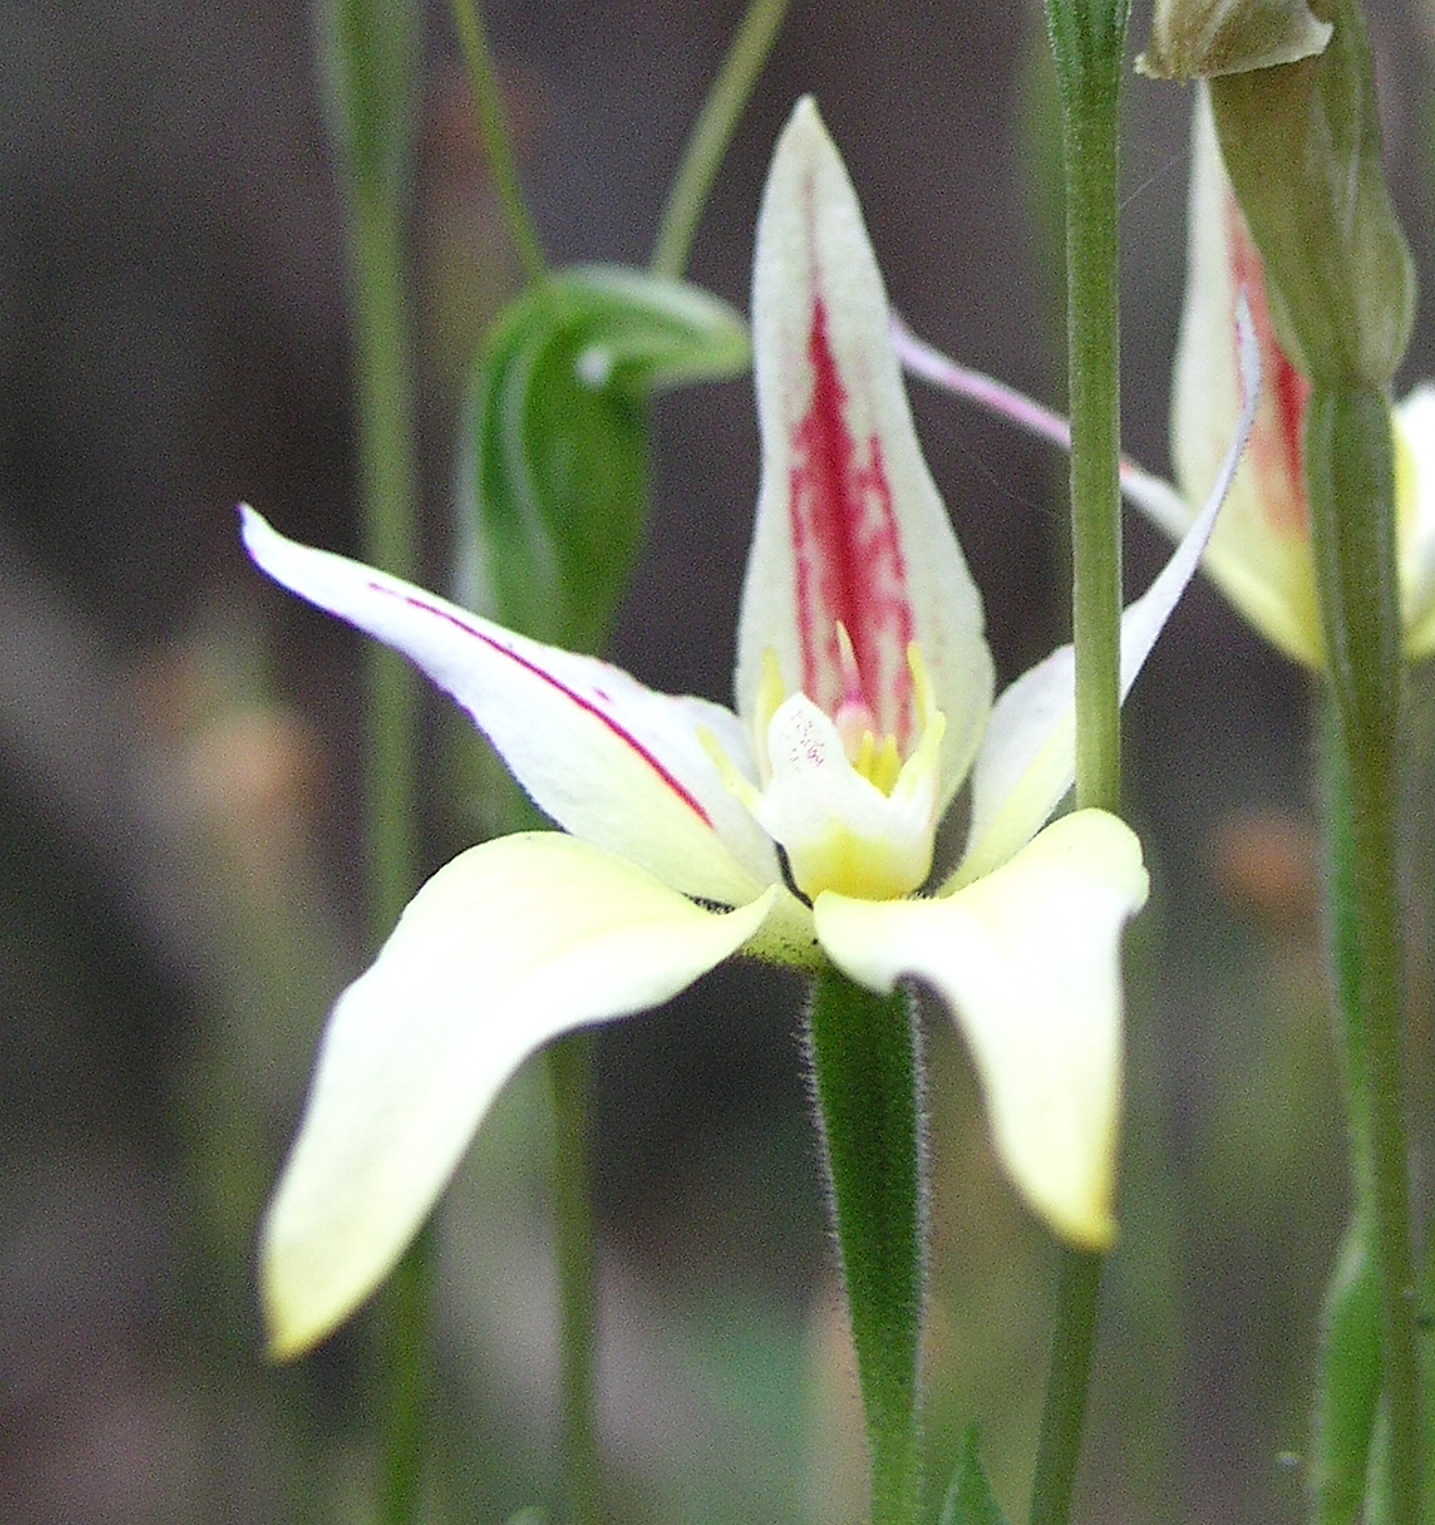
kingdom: Plantae
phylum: Tracheophyta
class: Liliopsida
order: Asparagales
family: Orchidaceae
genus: Caladenia
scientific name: Caladenia flava
